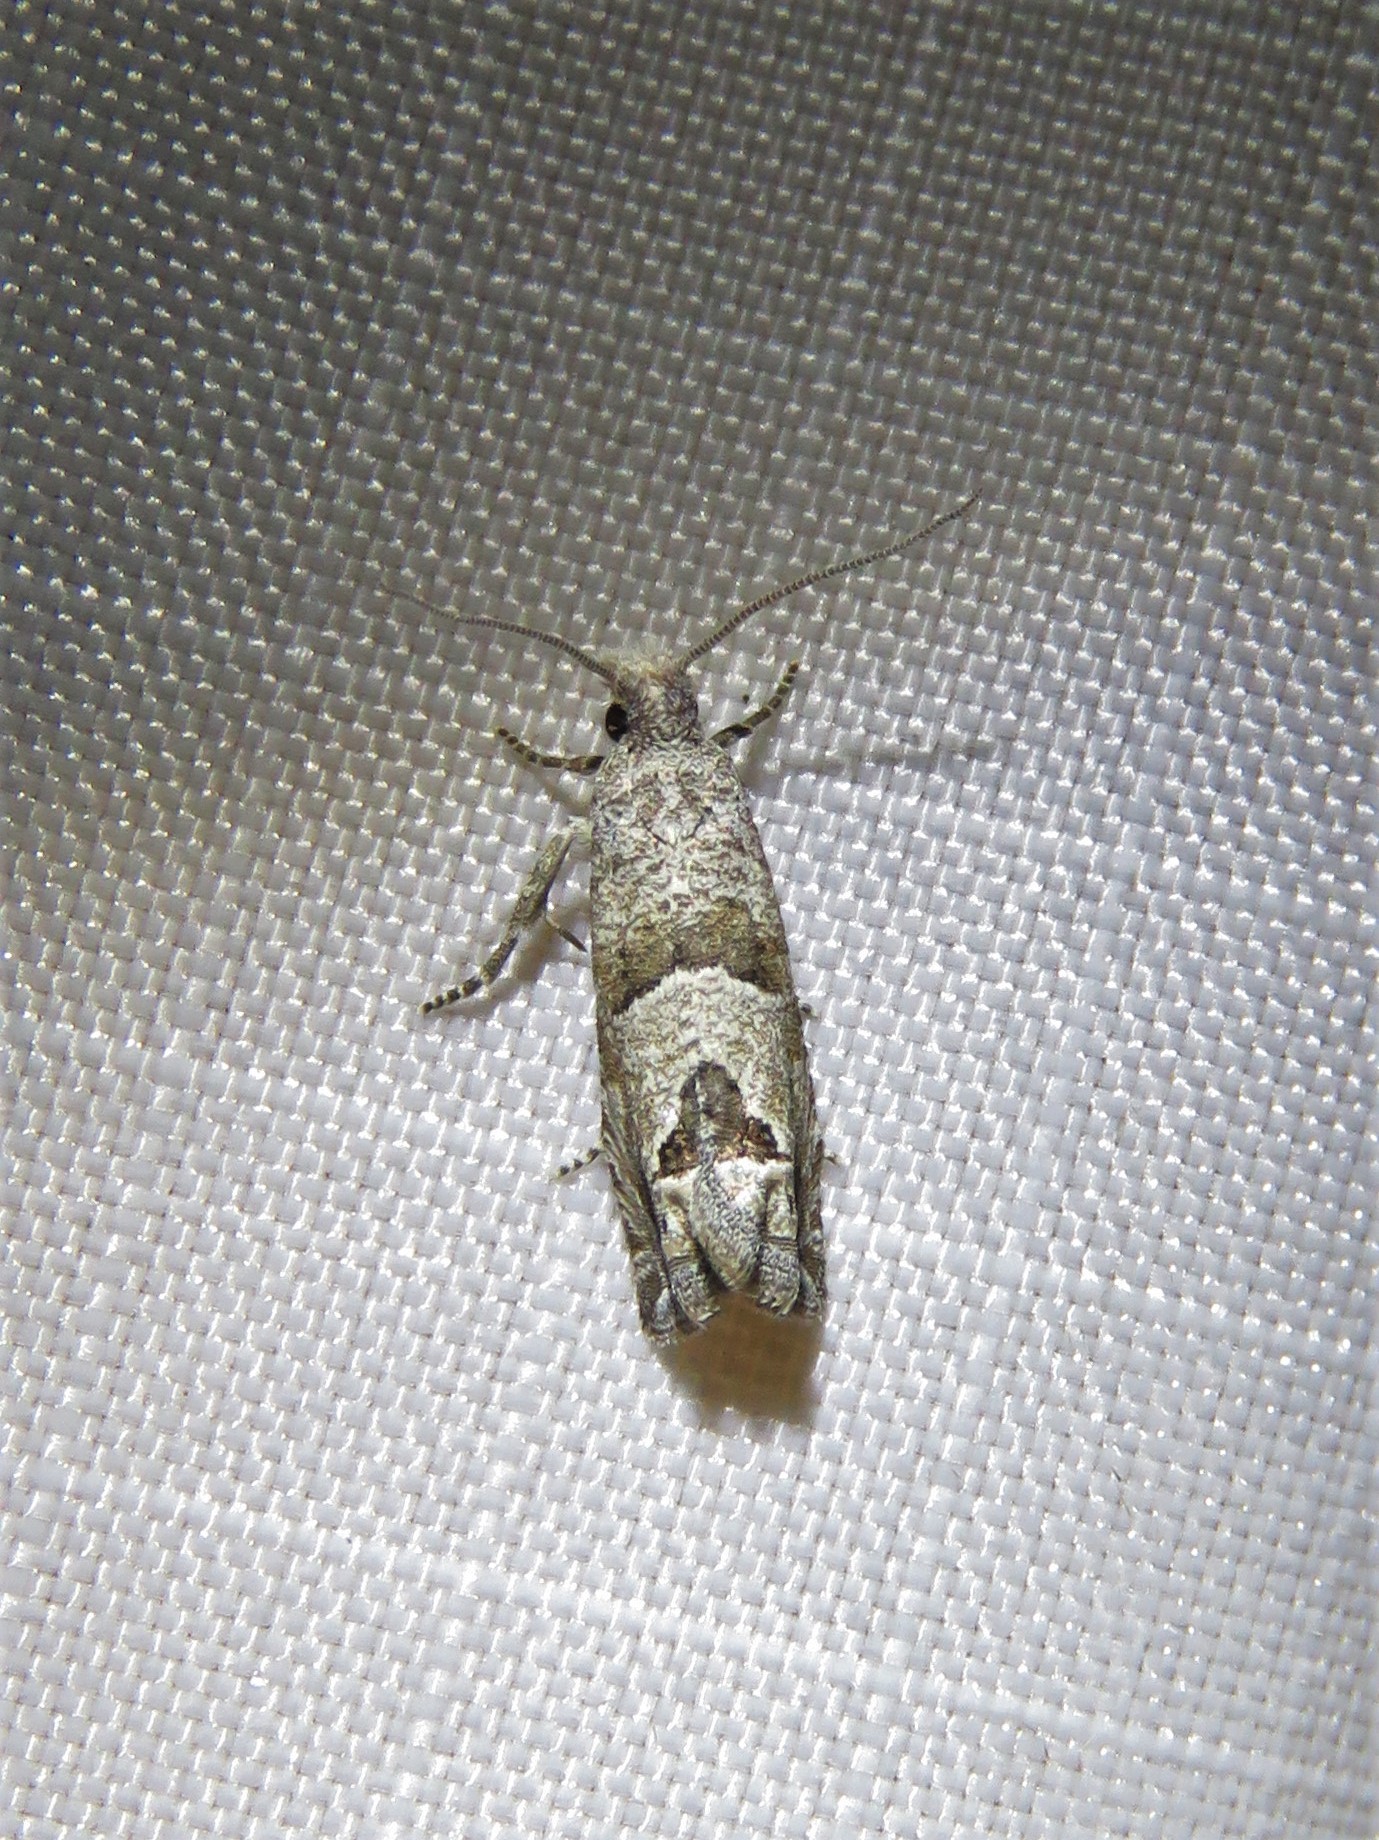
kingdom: Animalia
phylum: Arthropoda
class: Insecta
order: Lepidoptera
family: Tortricidae
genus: Suleima
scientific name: Suleima helianthana
